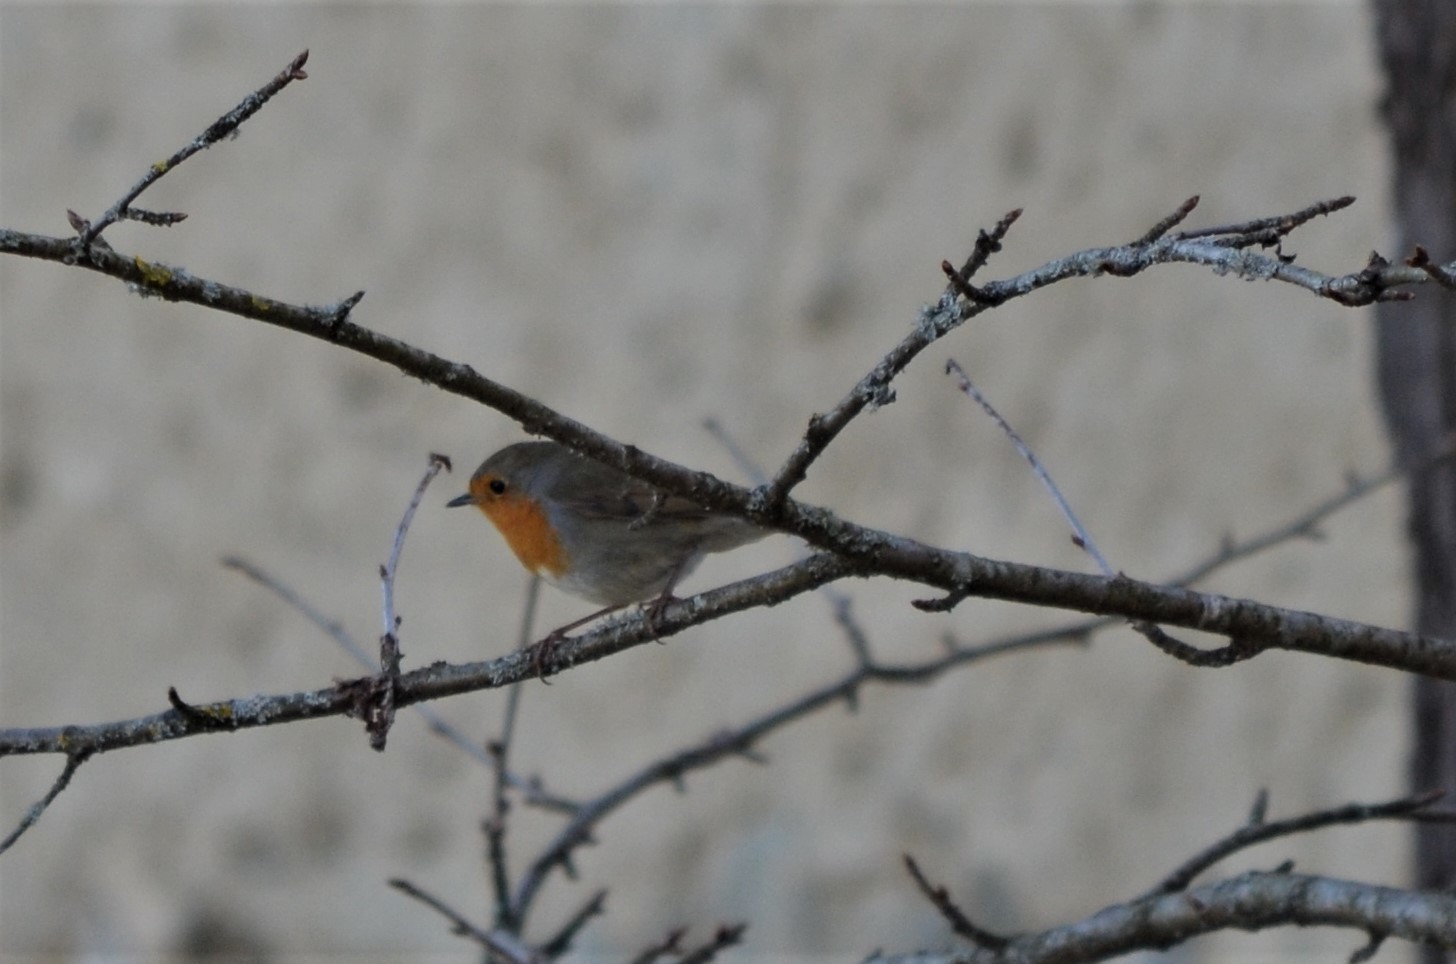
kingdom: Animalia
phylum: Chordata
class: Aves
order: Passeriformes
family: Muscicapidae
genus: Erithacus
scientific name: Erithacus rubecula
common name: European robin
